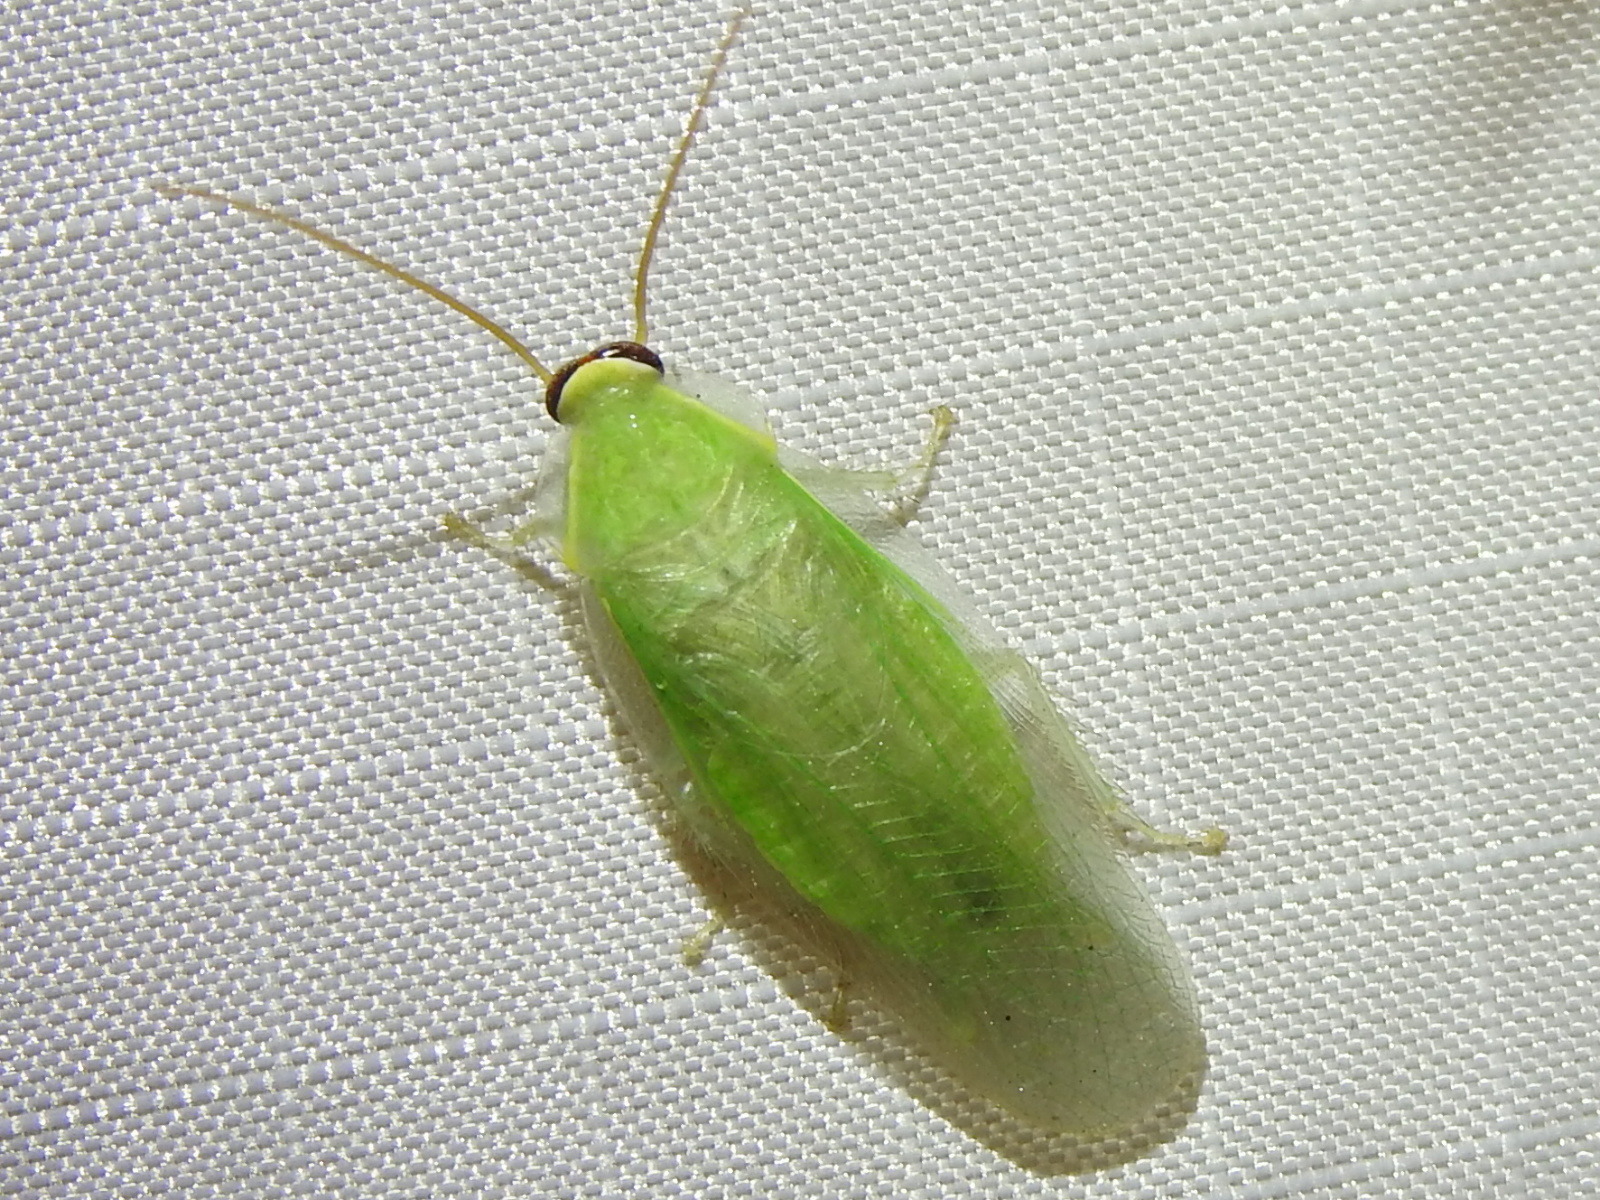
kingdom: Animalia
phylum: Arthropoda
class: Insecta
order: Blattodea
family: Blaberidae
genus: Panchlora
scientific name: Panchlora nivea
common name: Cuban cockroach
